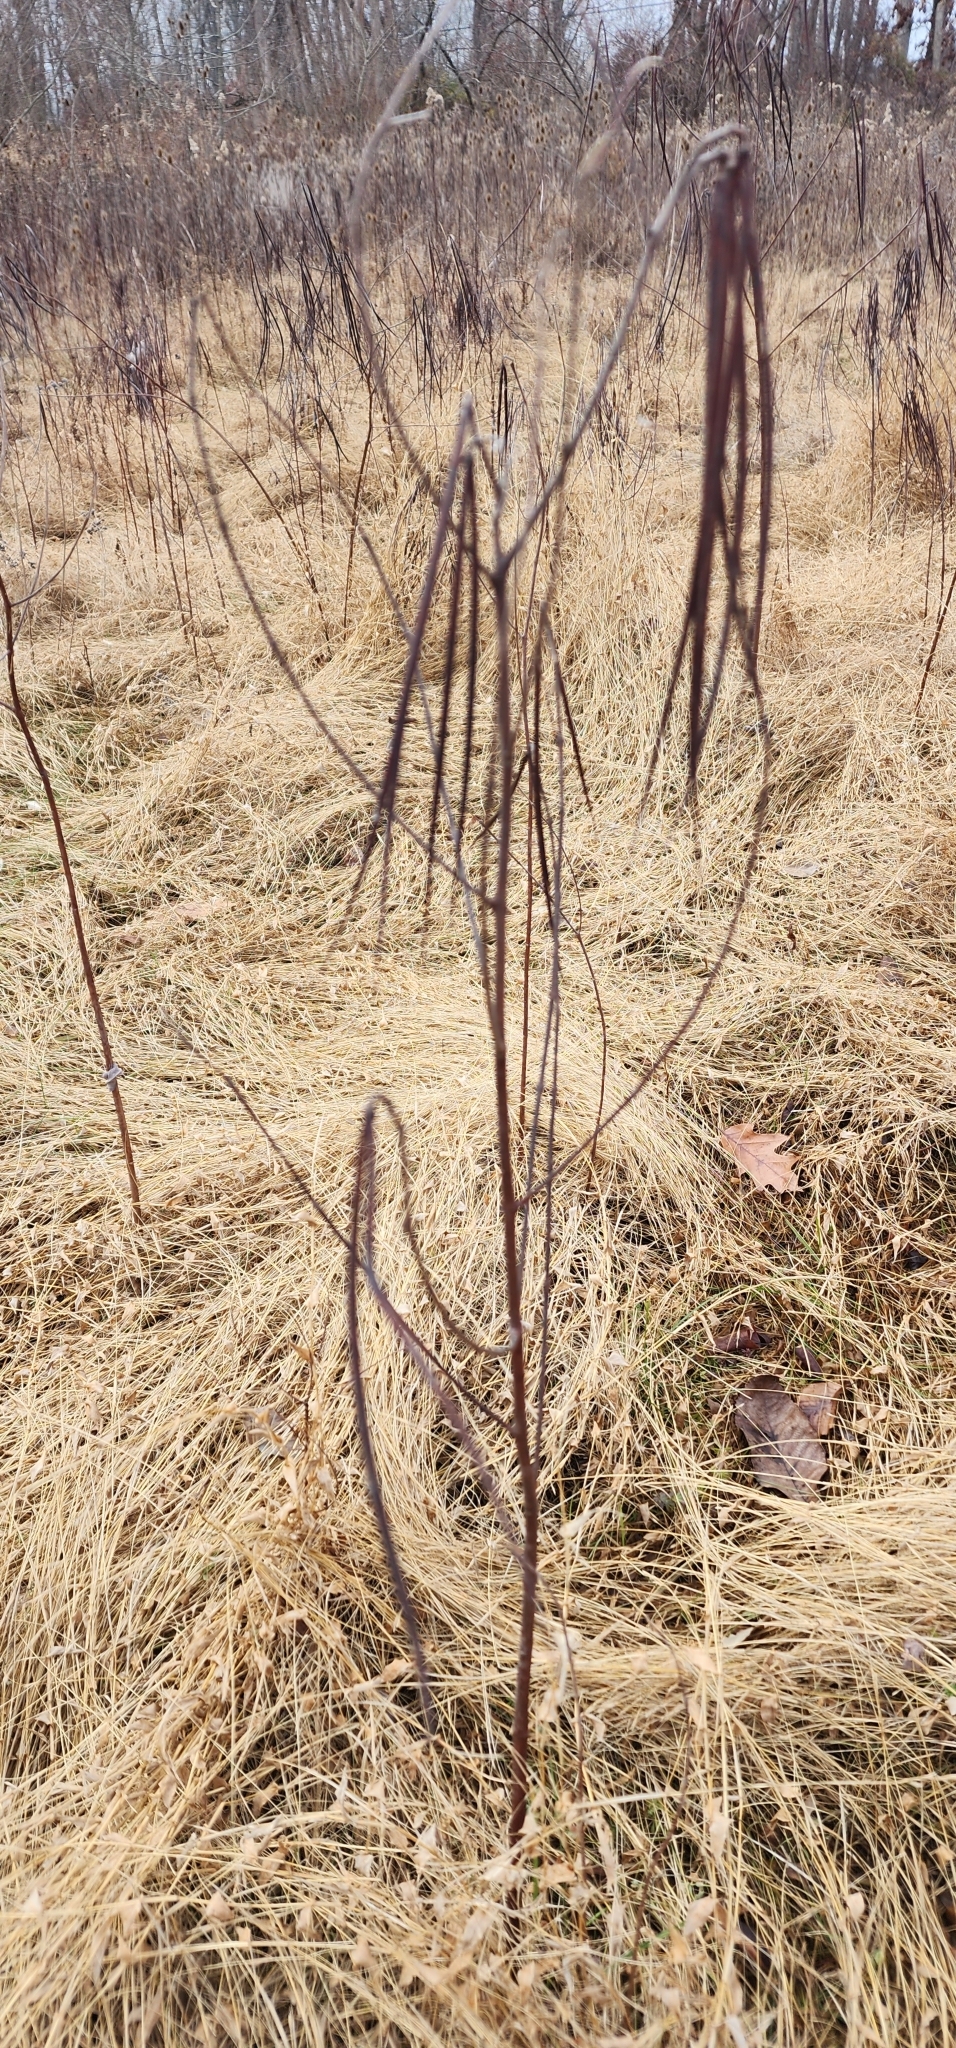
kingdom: Plantae
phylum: Tracheophyta
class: Magnoliopsida
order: Gentianales
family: Apocynaceae
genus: Apocynum
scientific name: Apocynum cannabinum
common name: Hemp dogbane
